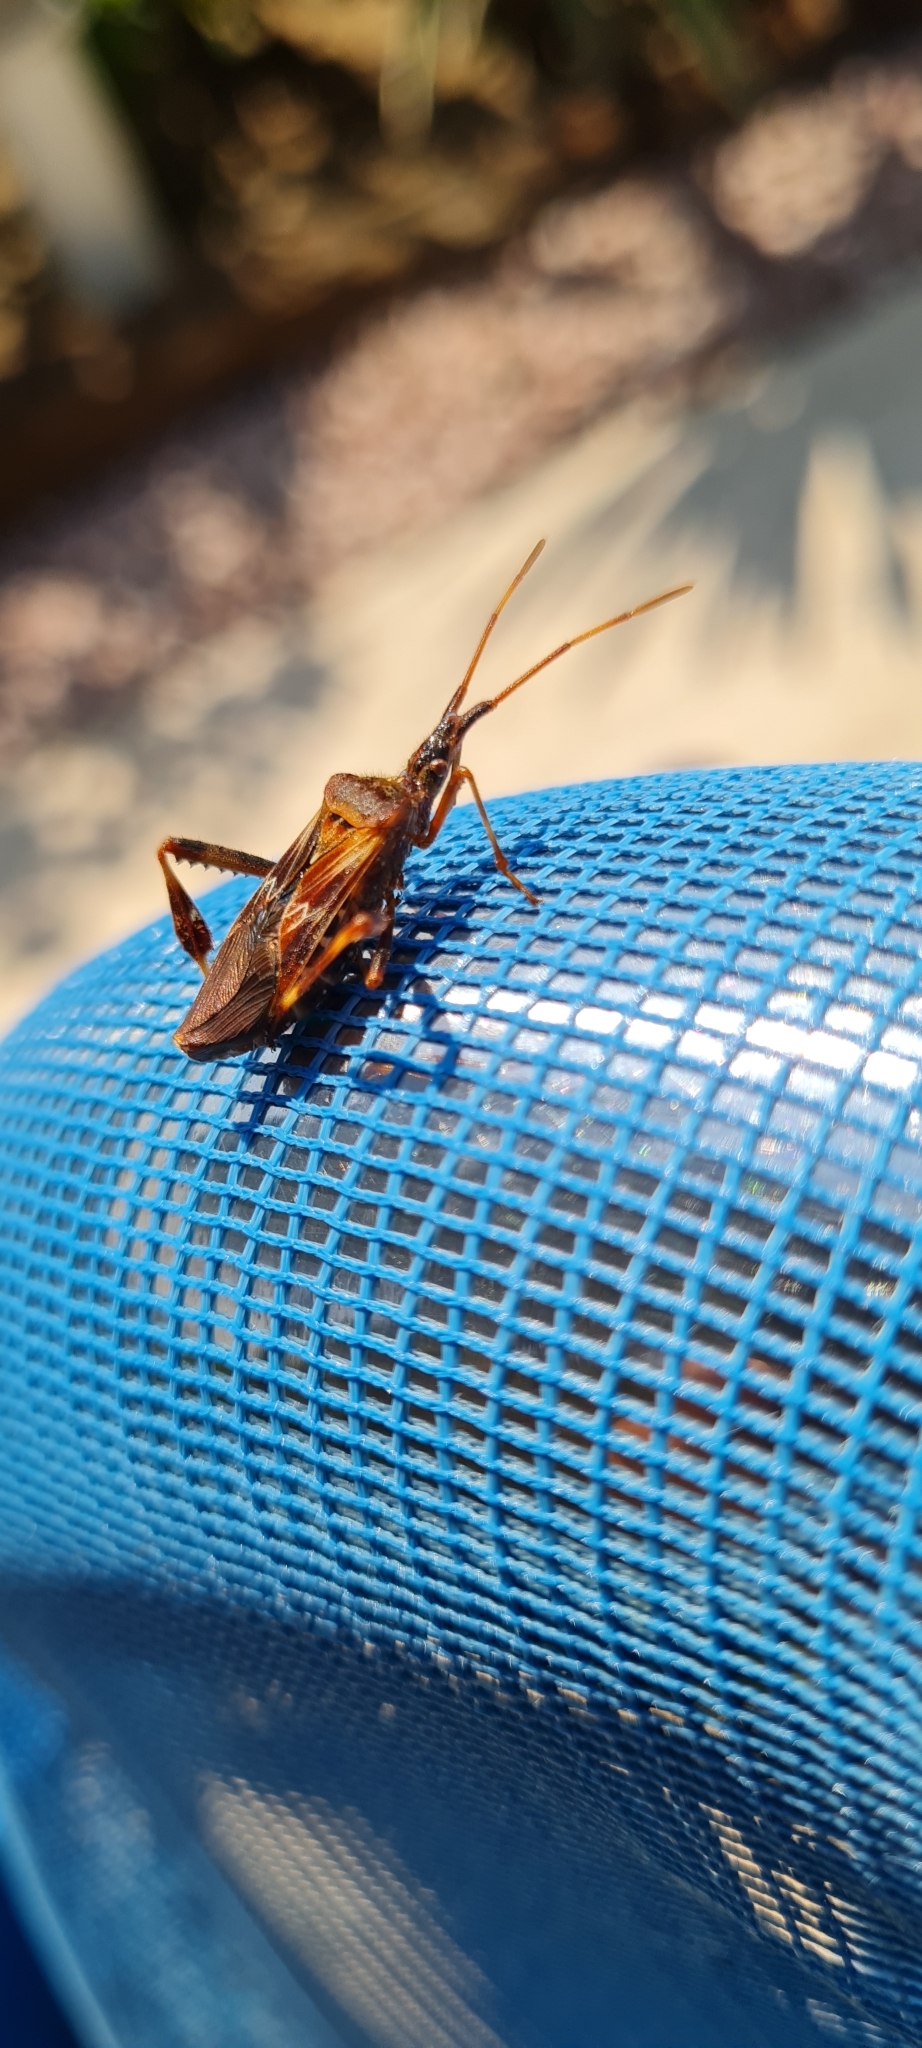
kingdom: Animalia
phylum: Arthropoda
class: Insecta
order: Hemiptera
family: Coreidae
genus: Leptoglossus
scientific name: Leptoglossus occidentalis
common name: Western conifer-seed bug
